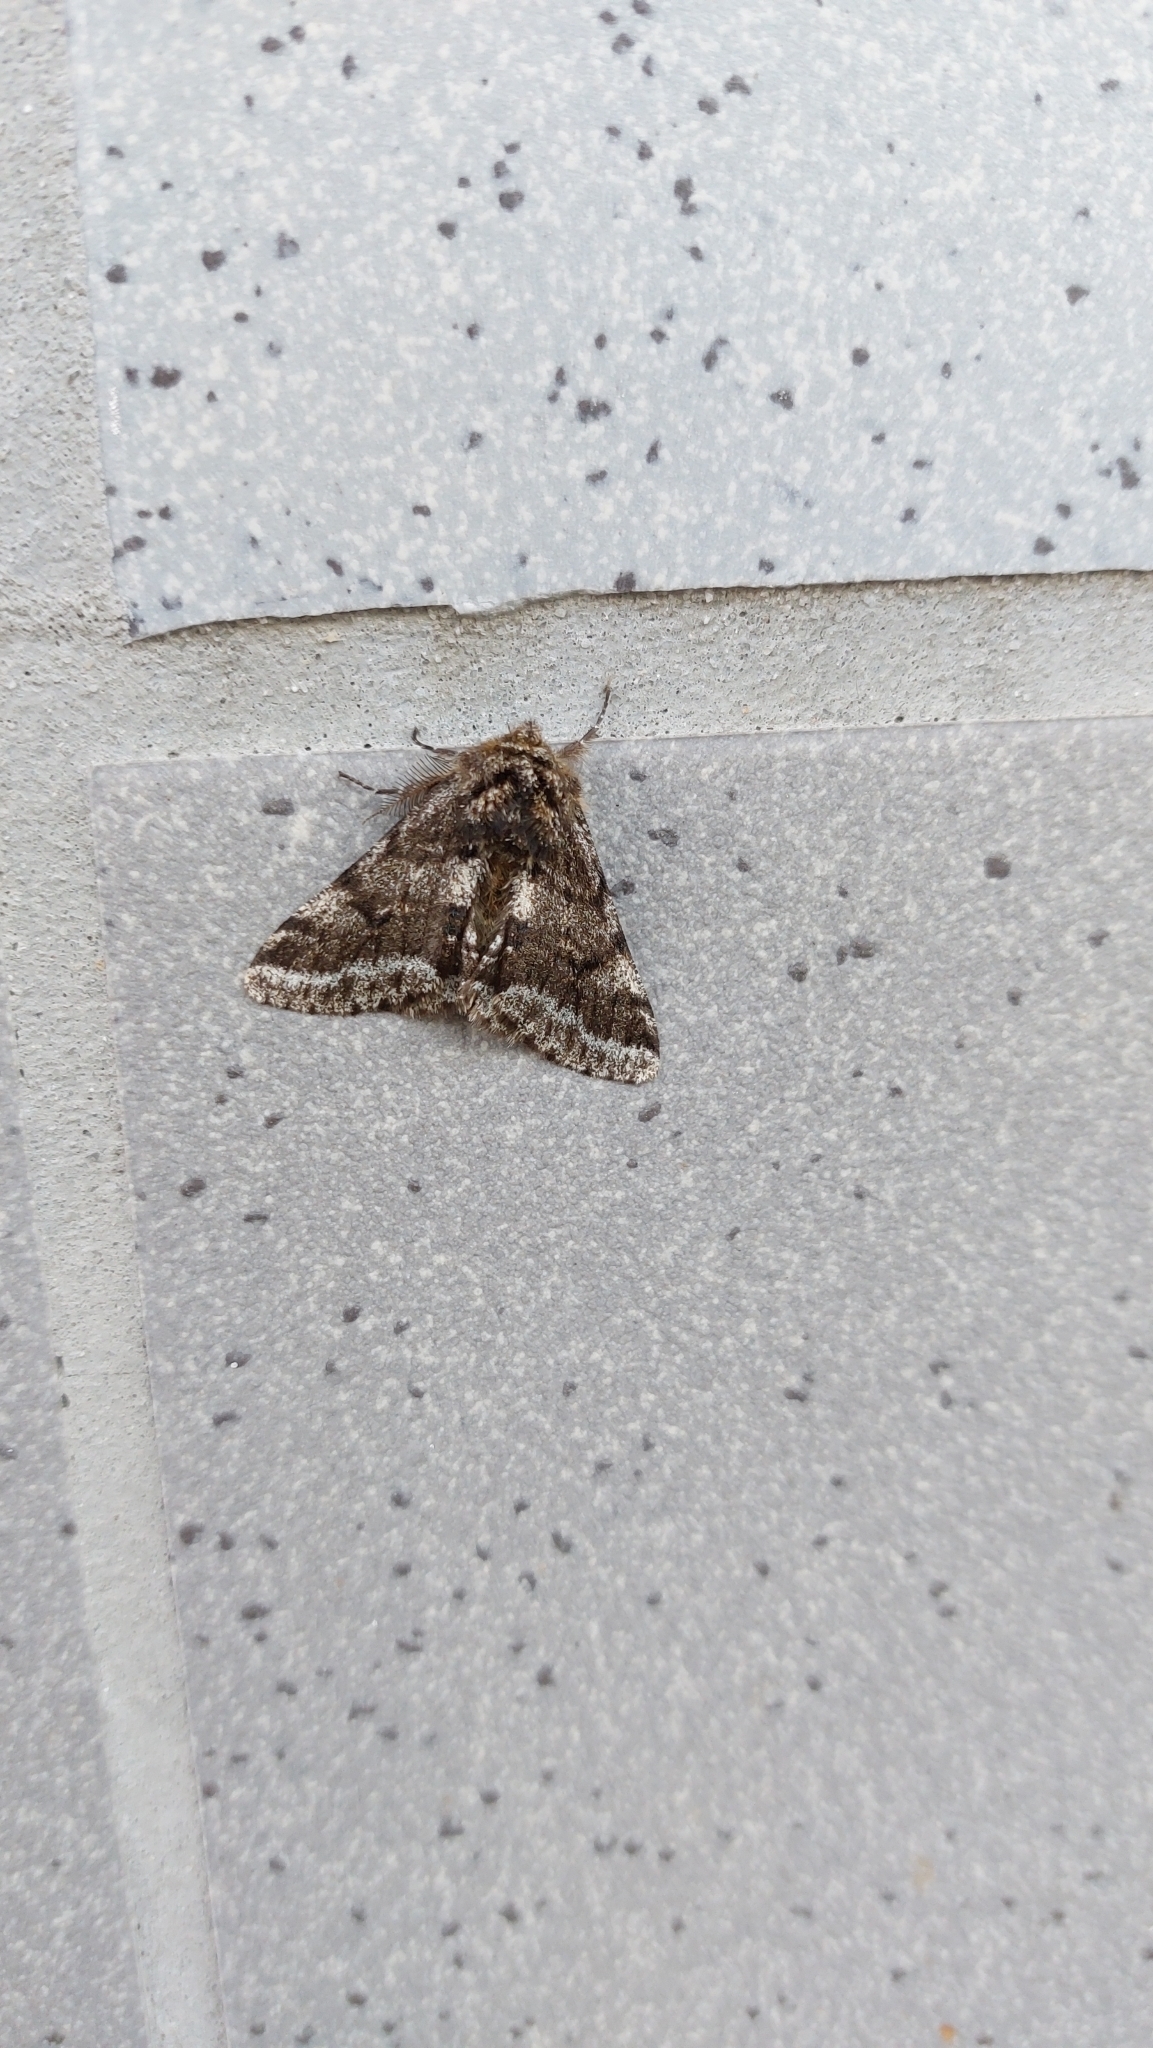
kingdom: Animalia
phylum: Arthropoda
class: Insecta
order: Lepidoptera
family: Geometridae
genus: Lycia
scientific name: Lycia hirtaria
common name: Brindled beauty
